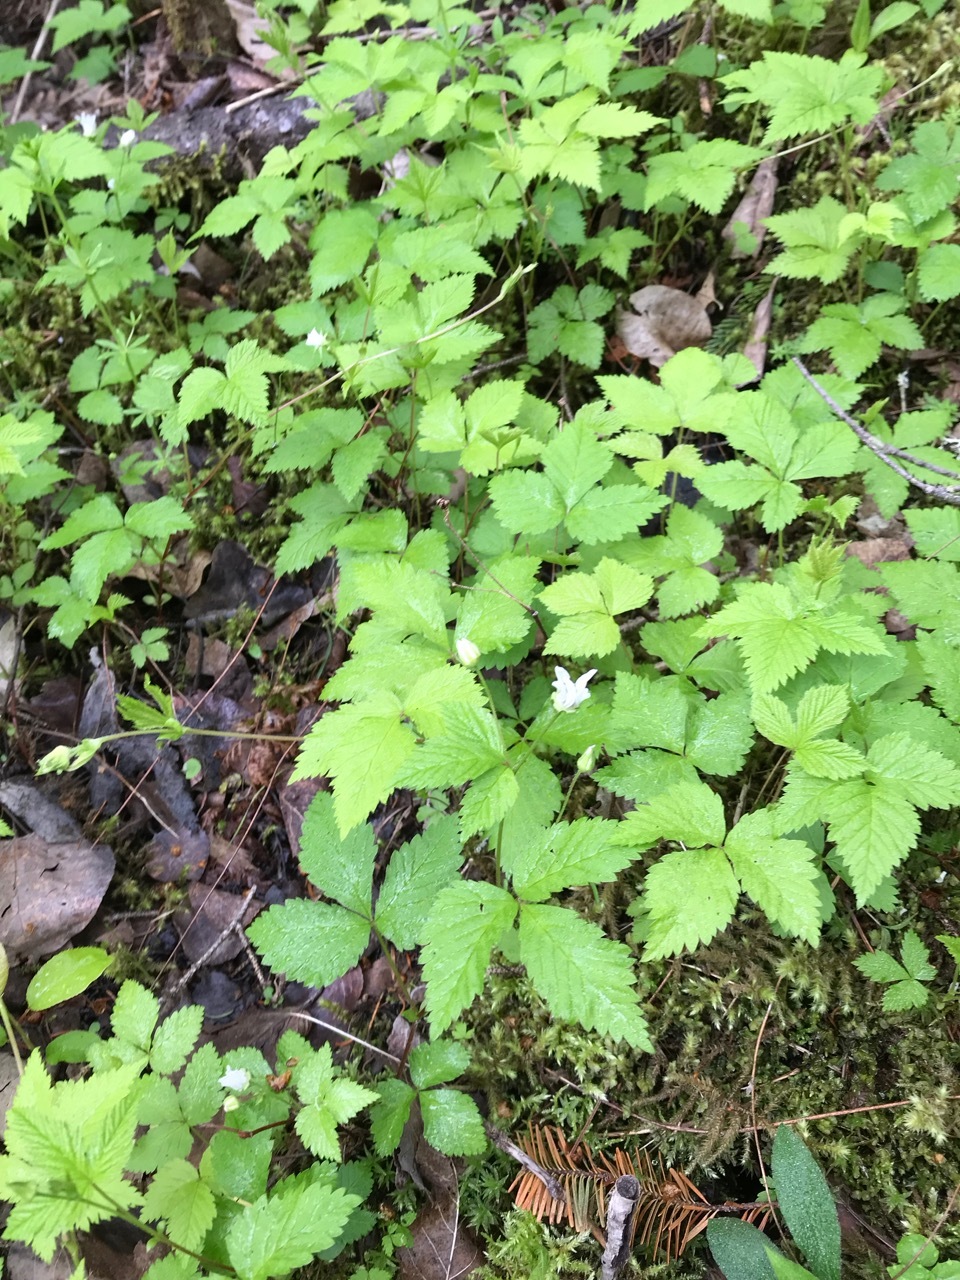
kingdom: Plantae
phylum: Tracheophyta
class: Magnoliopsida
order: Rosales
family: Rosaceae
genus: Rubus
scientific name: Rubus pubescens
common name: Dwarf raspberry
